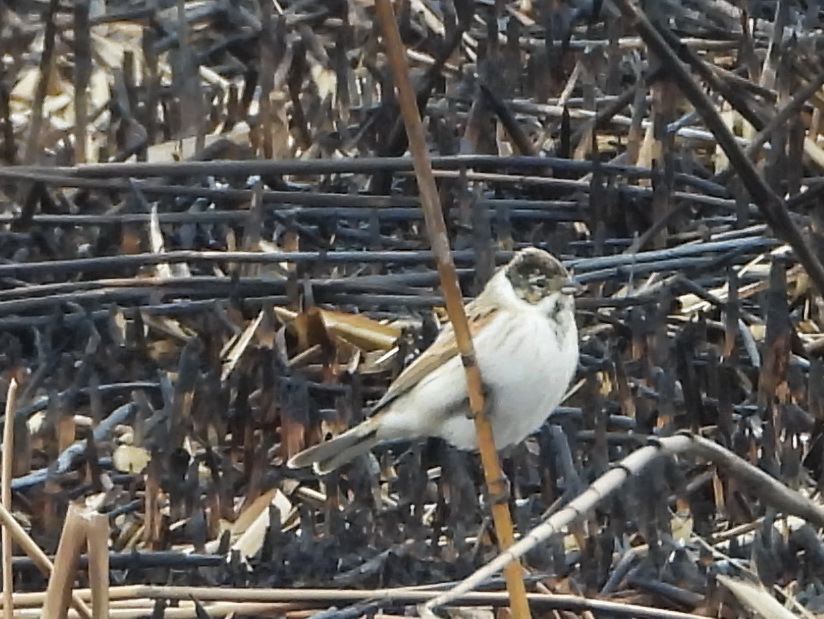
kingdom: Animalia
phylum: Chordata
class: Aves
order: Passeriformes
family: Emberizidae
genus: Emberiza
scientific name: Emberiza pallasi
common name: Pallas's reed bunting
